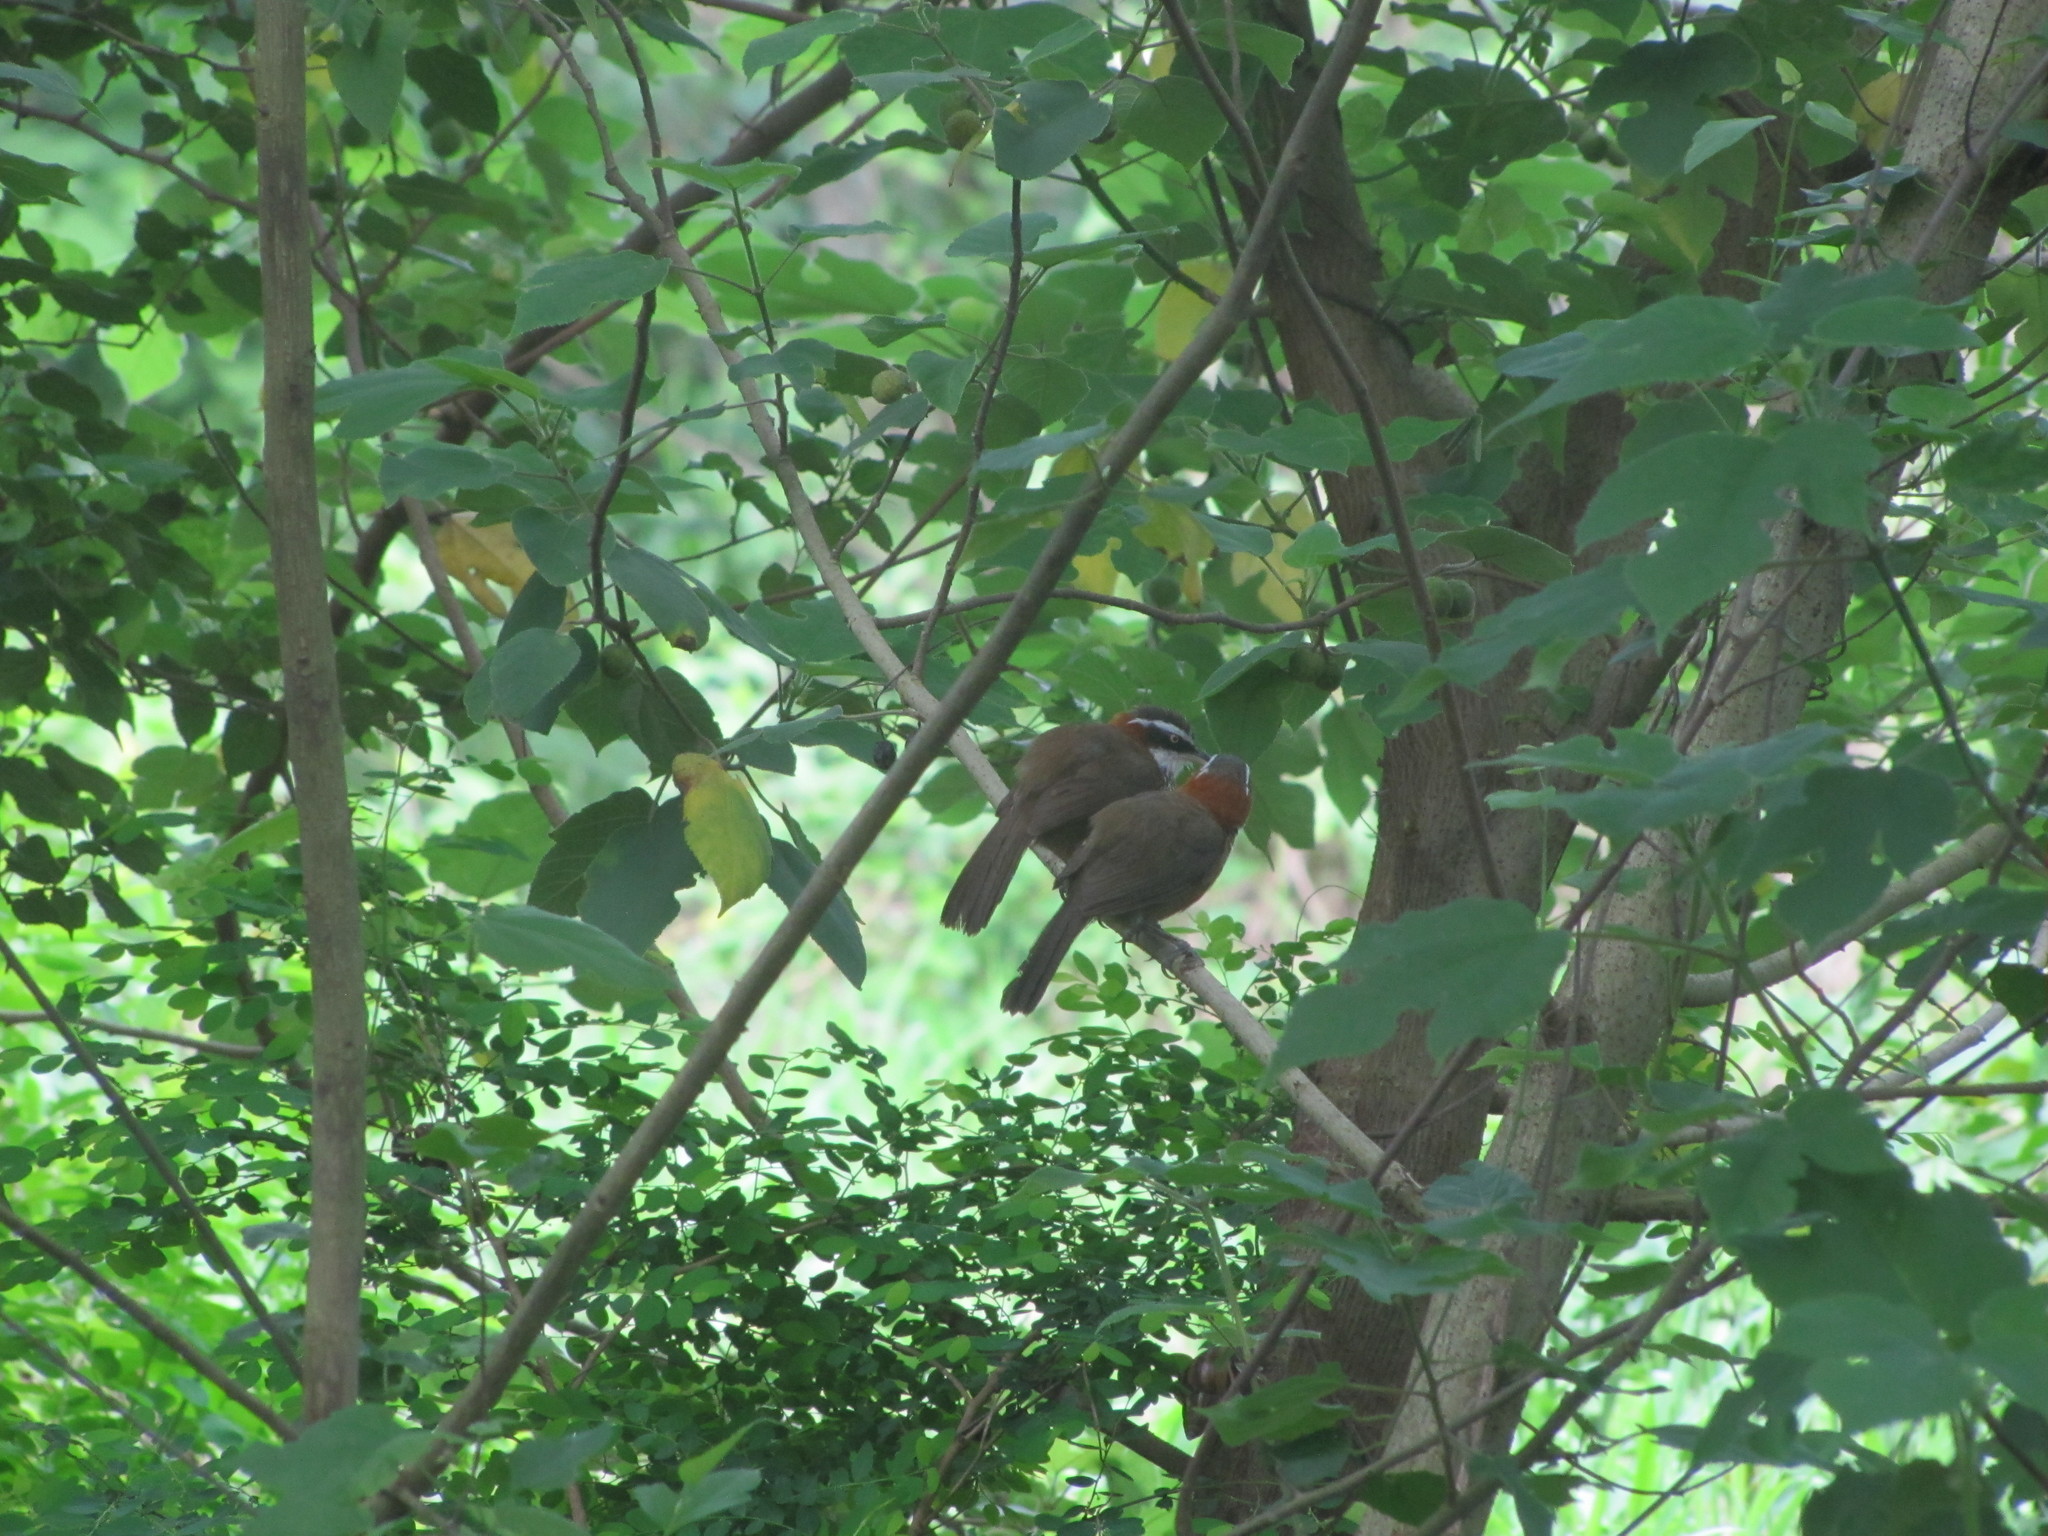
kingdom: Animalia
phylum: Chordata
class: Aves
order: Passeriformes
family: Timaliidae
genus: Pomatorhinus
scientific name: Pomatorhinus musicus
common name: Taiwan scimitar-babbler
